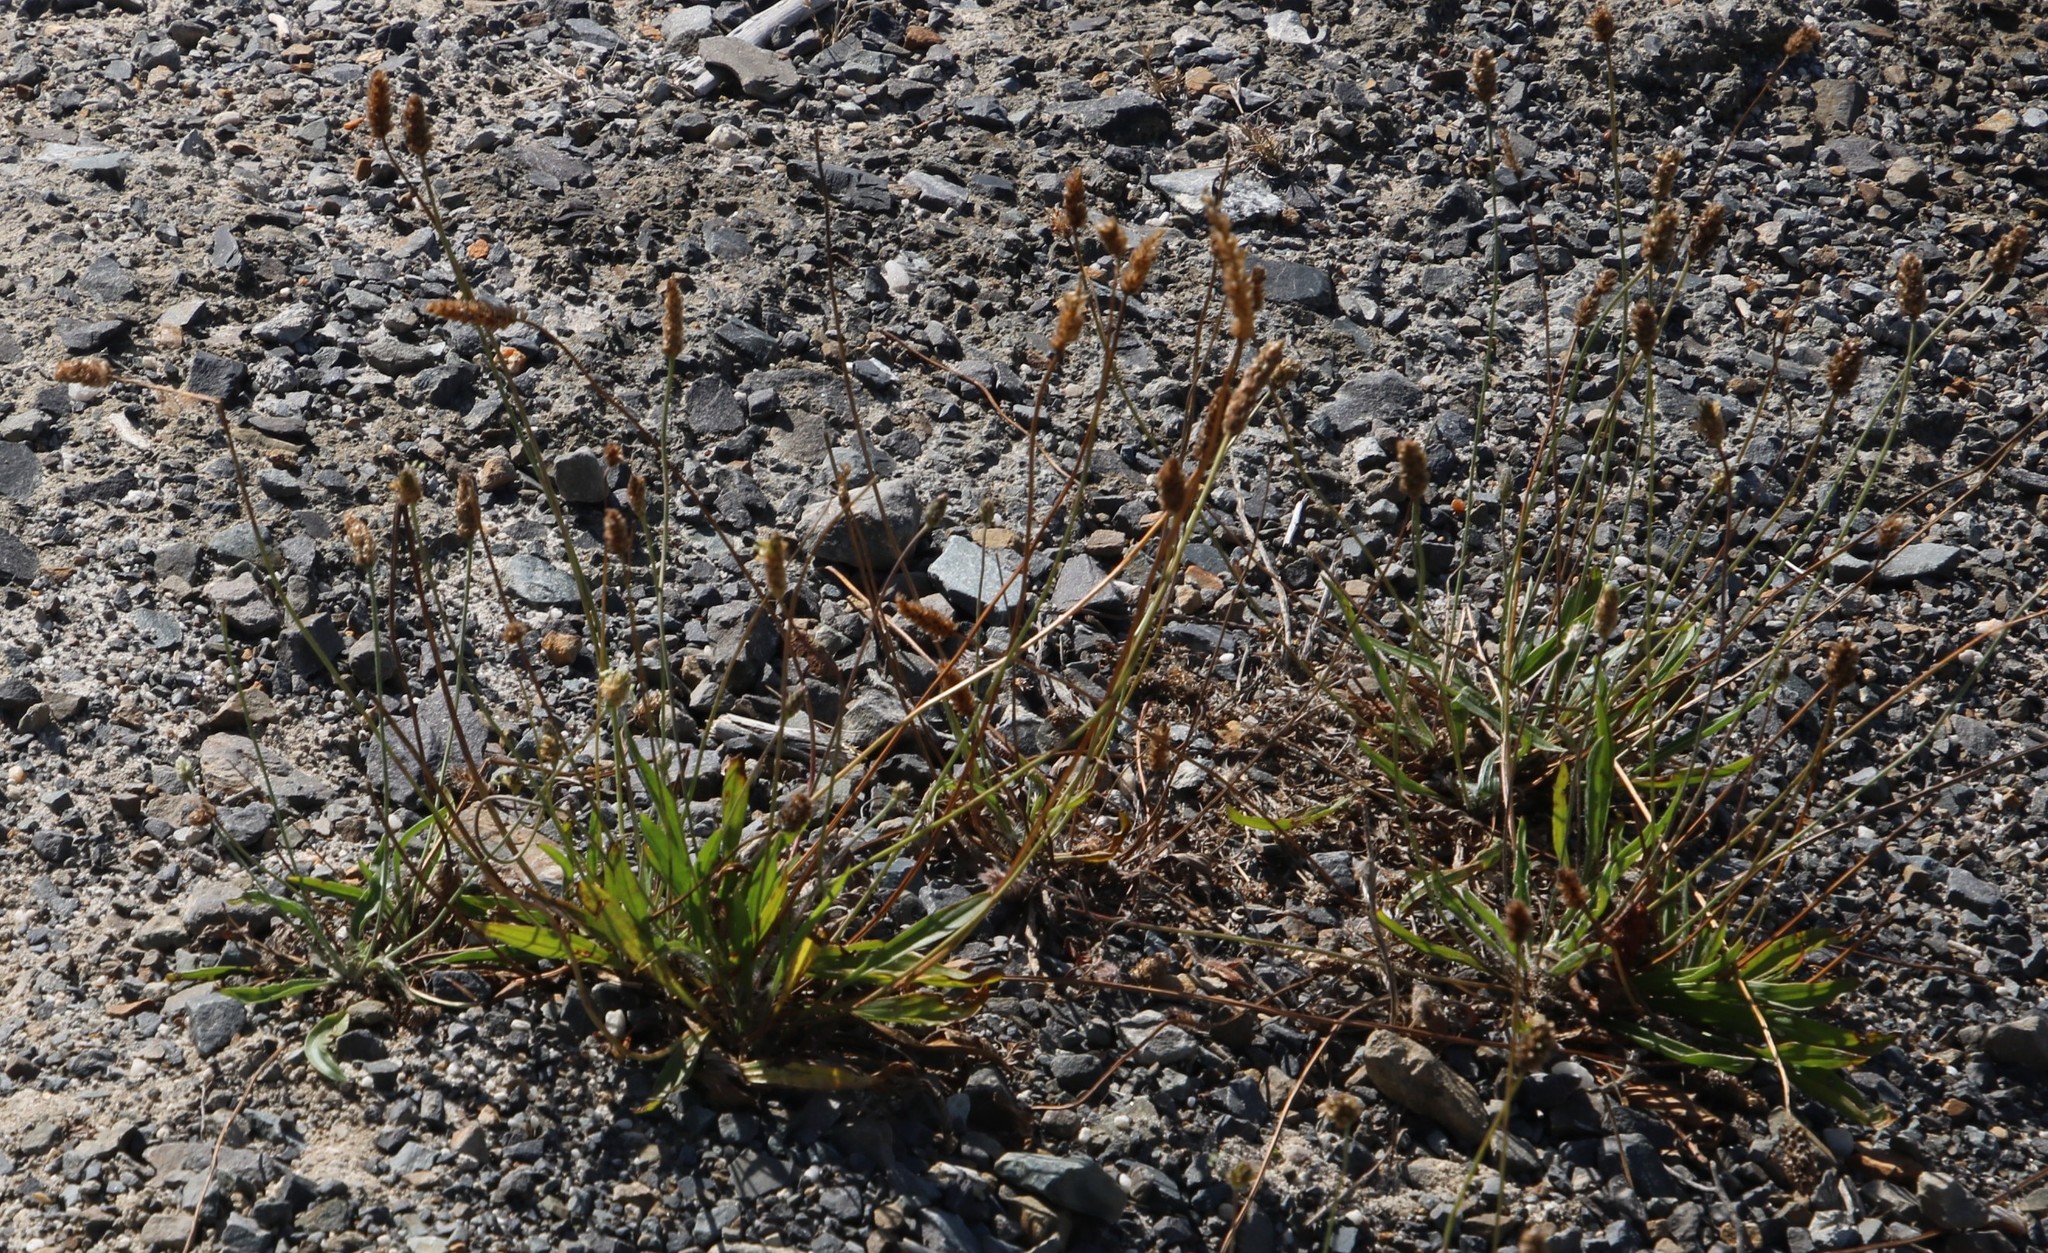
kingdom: Plantae
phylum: Tracheophyta
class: Magnoliopsida
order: Lamiales
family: Plantaginaceae
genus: Plantago
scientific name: Plantago lanceolata
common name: Ribwort plantain
